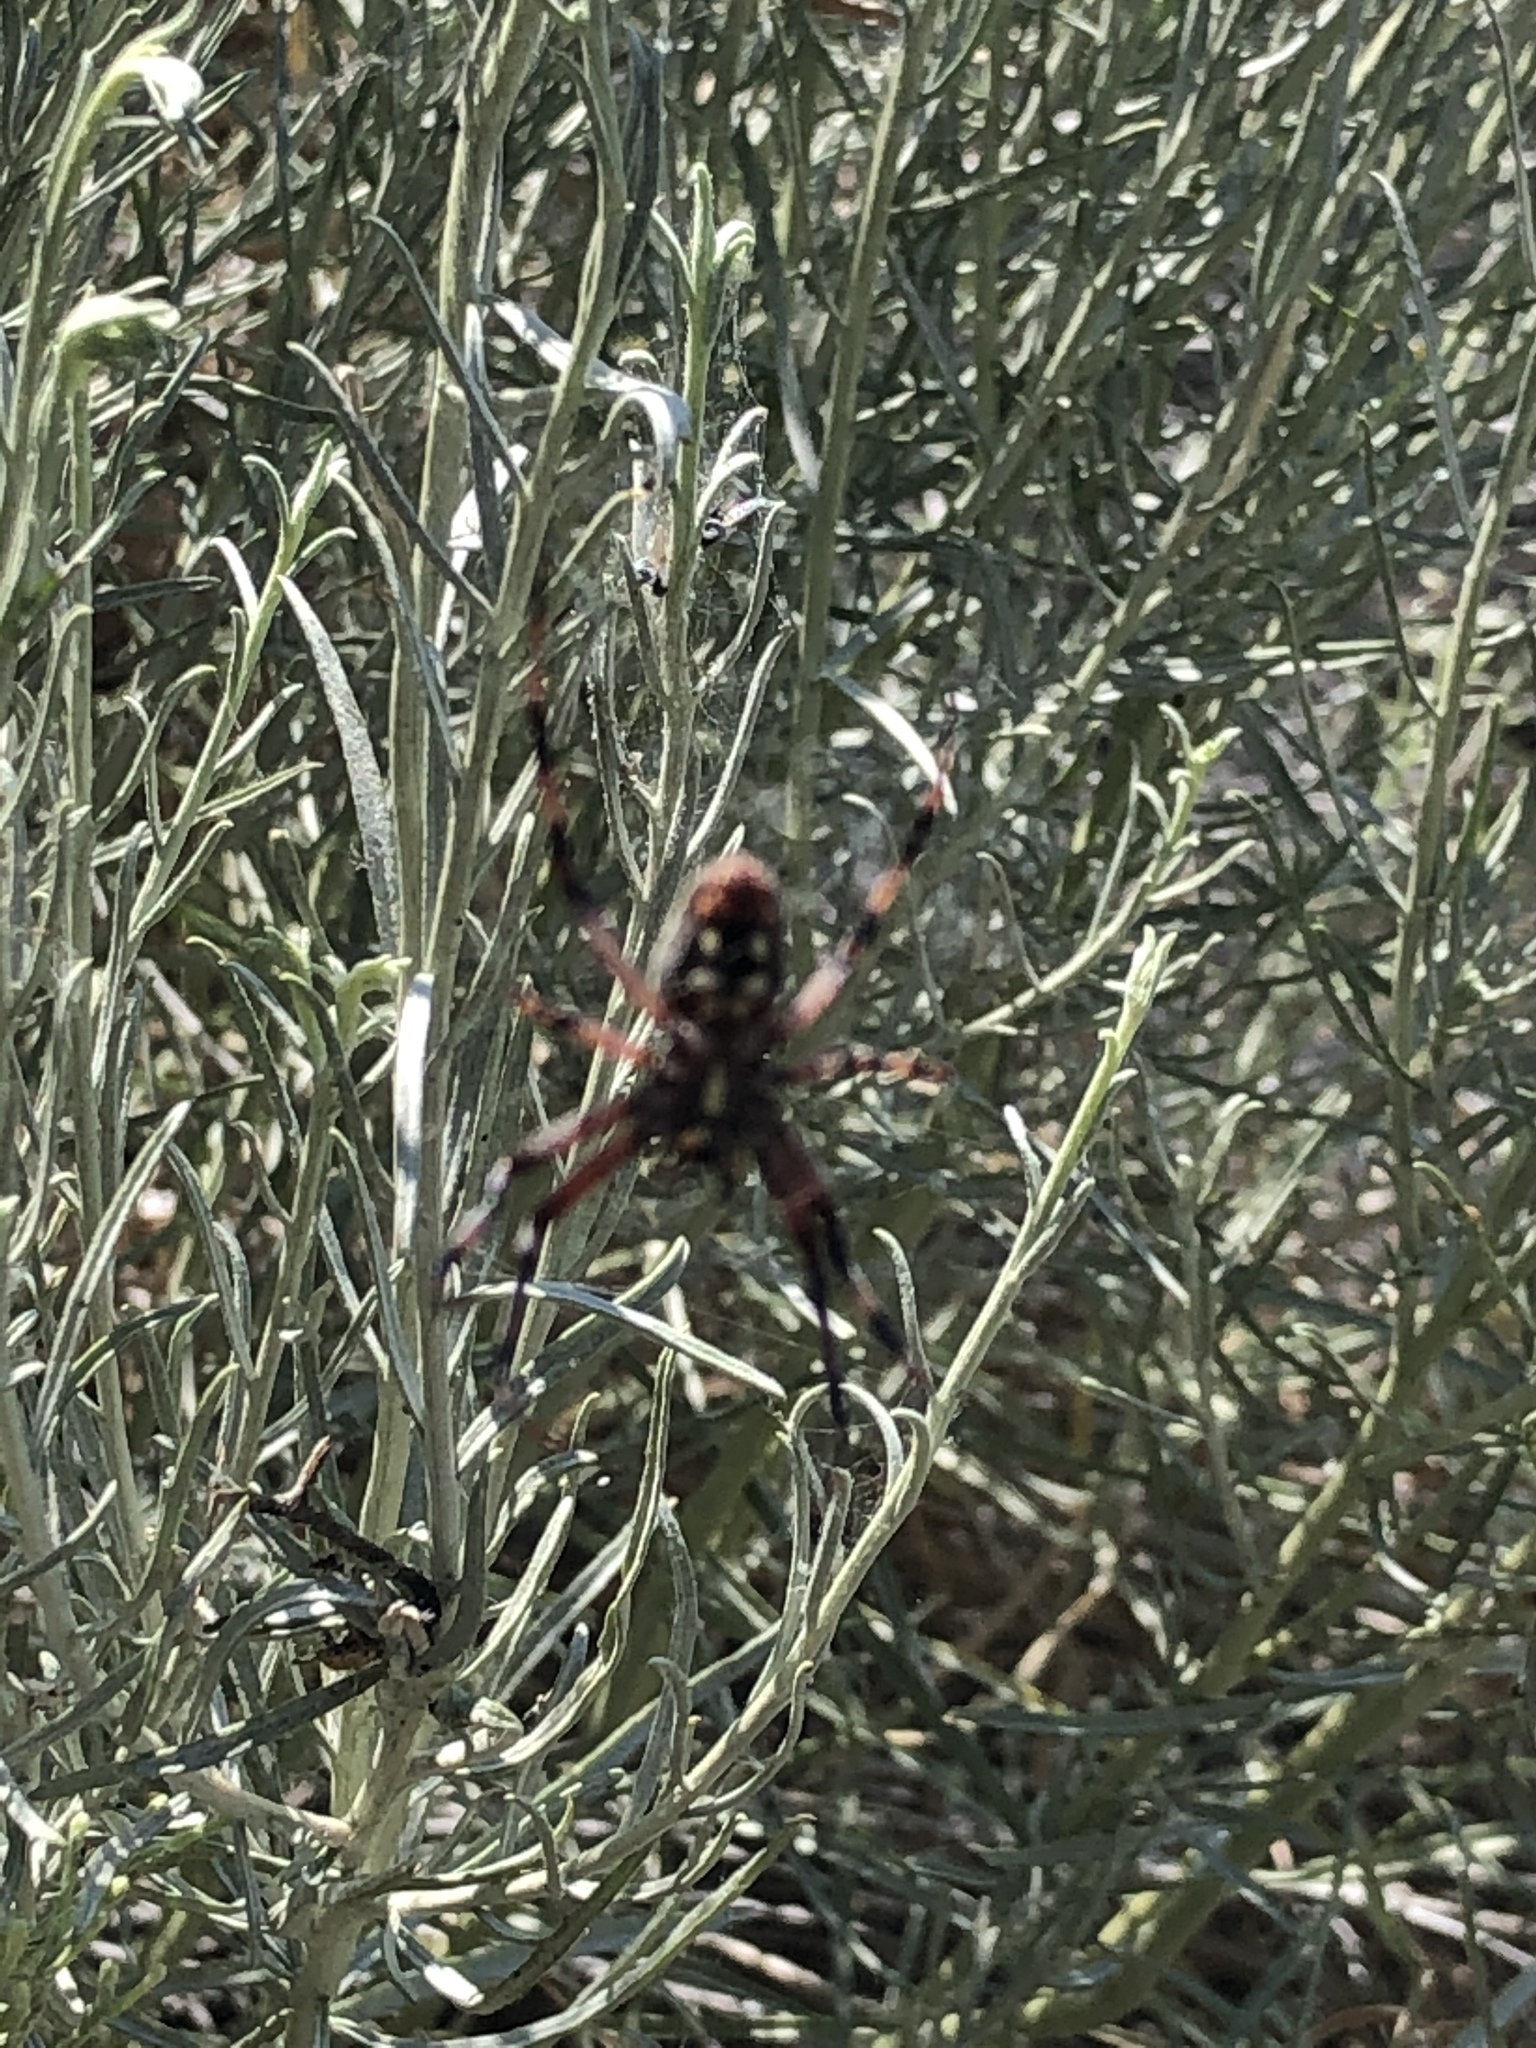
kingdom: Animalia
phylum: Arthropoda
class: Arachnida
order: Araneae
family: Araneidae
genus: Neoscona
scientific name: Neoscona oaxacensis
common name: Orb weavers
